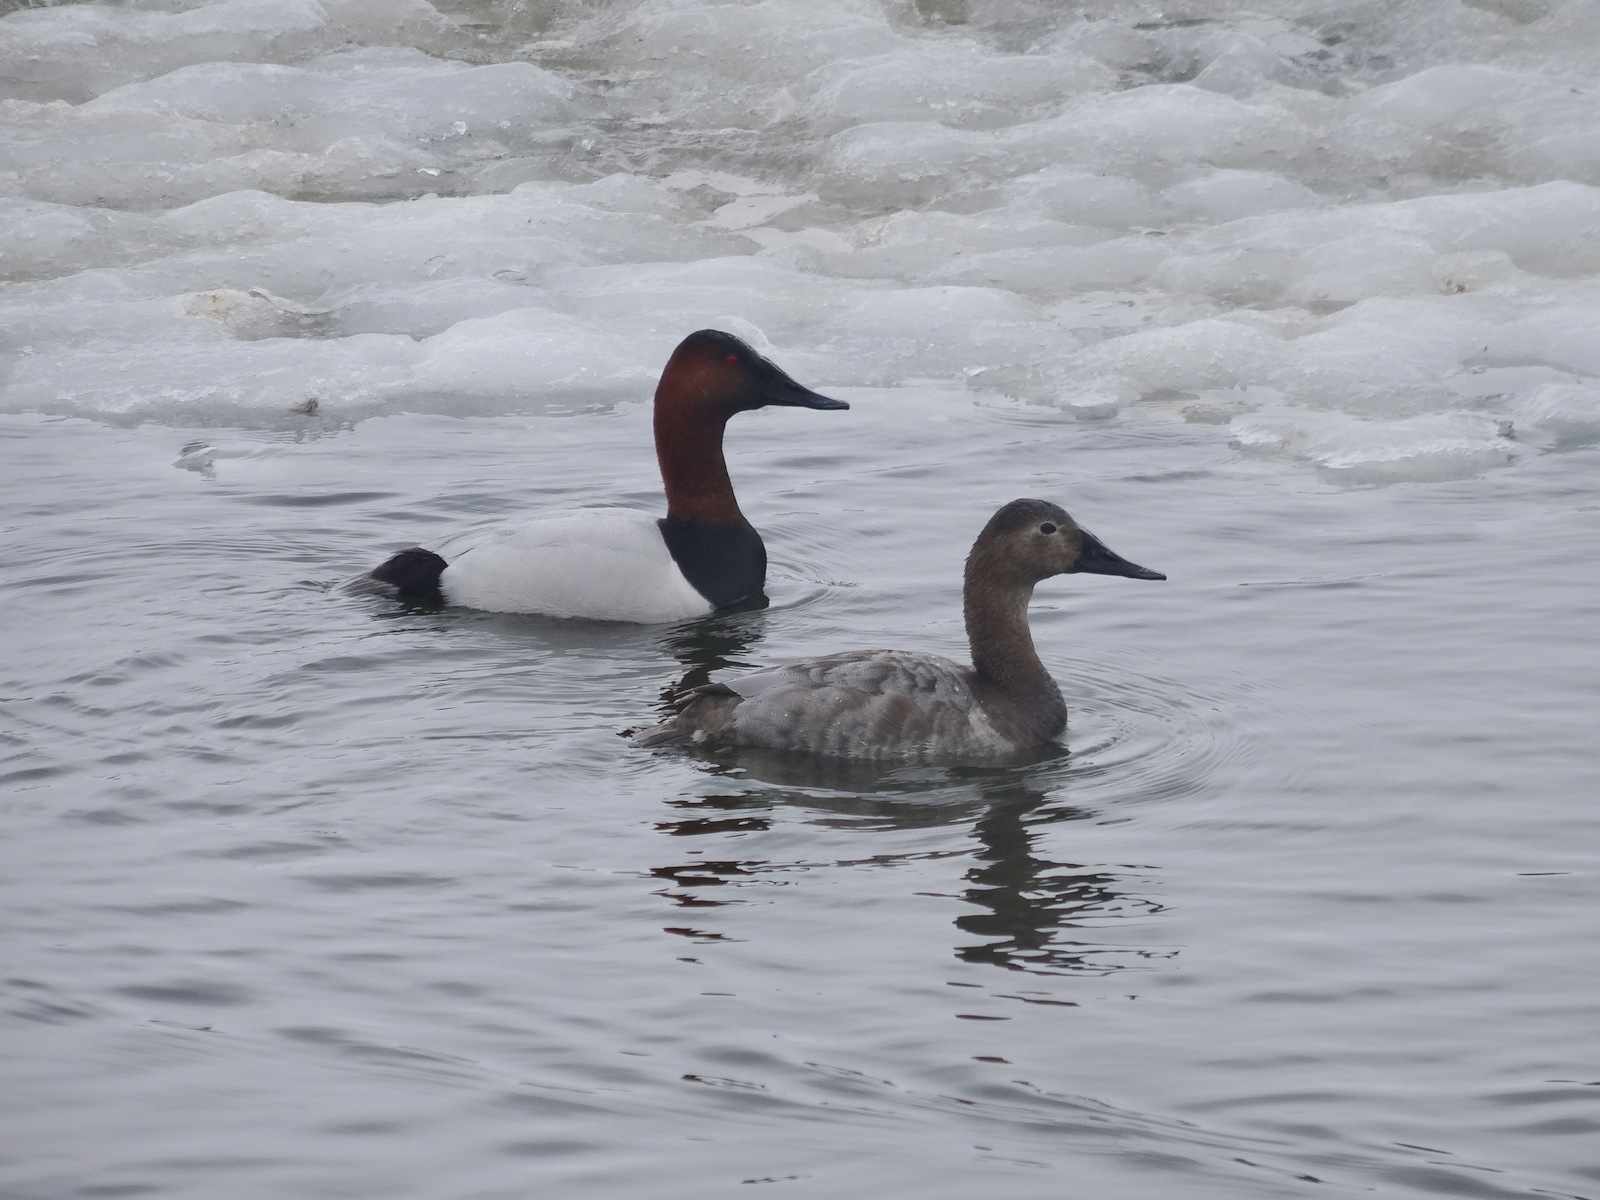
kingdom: Animalia
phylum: Chordata
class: Aves
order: Anseriformes
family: Anatidae
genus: Aythya
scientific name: Aythya valisineria
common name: Canvasback
